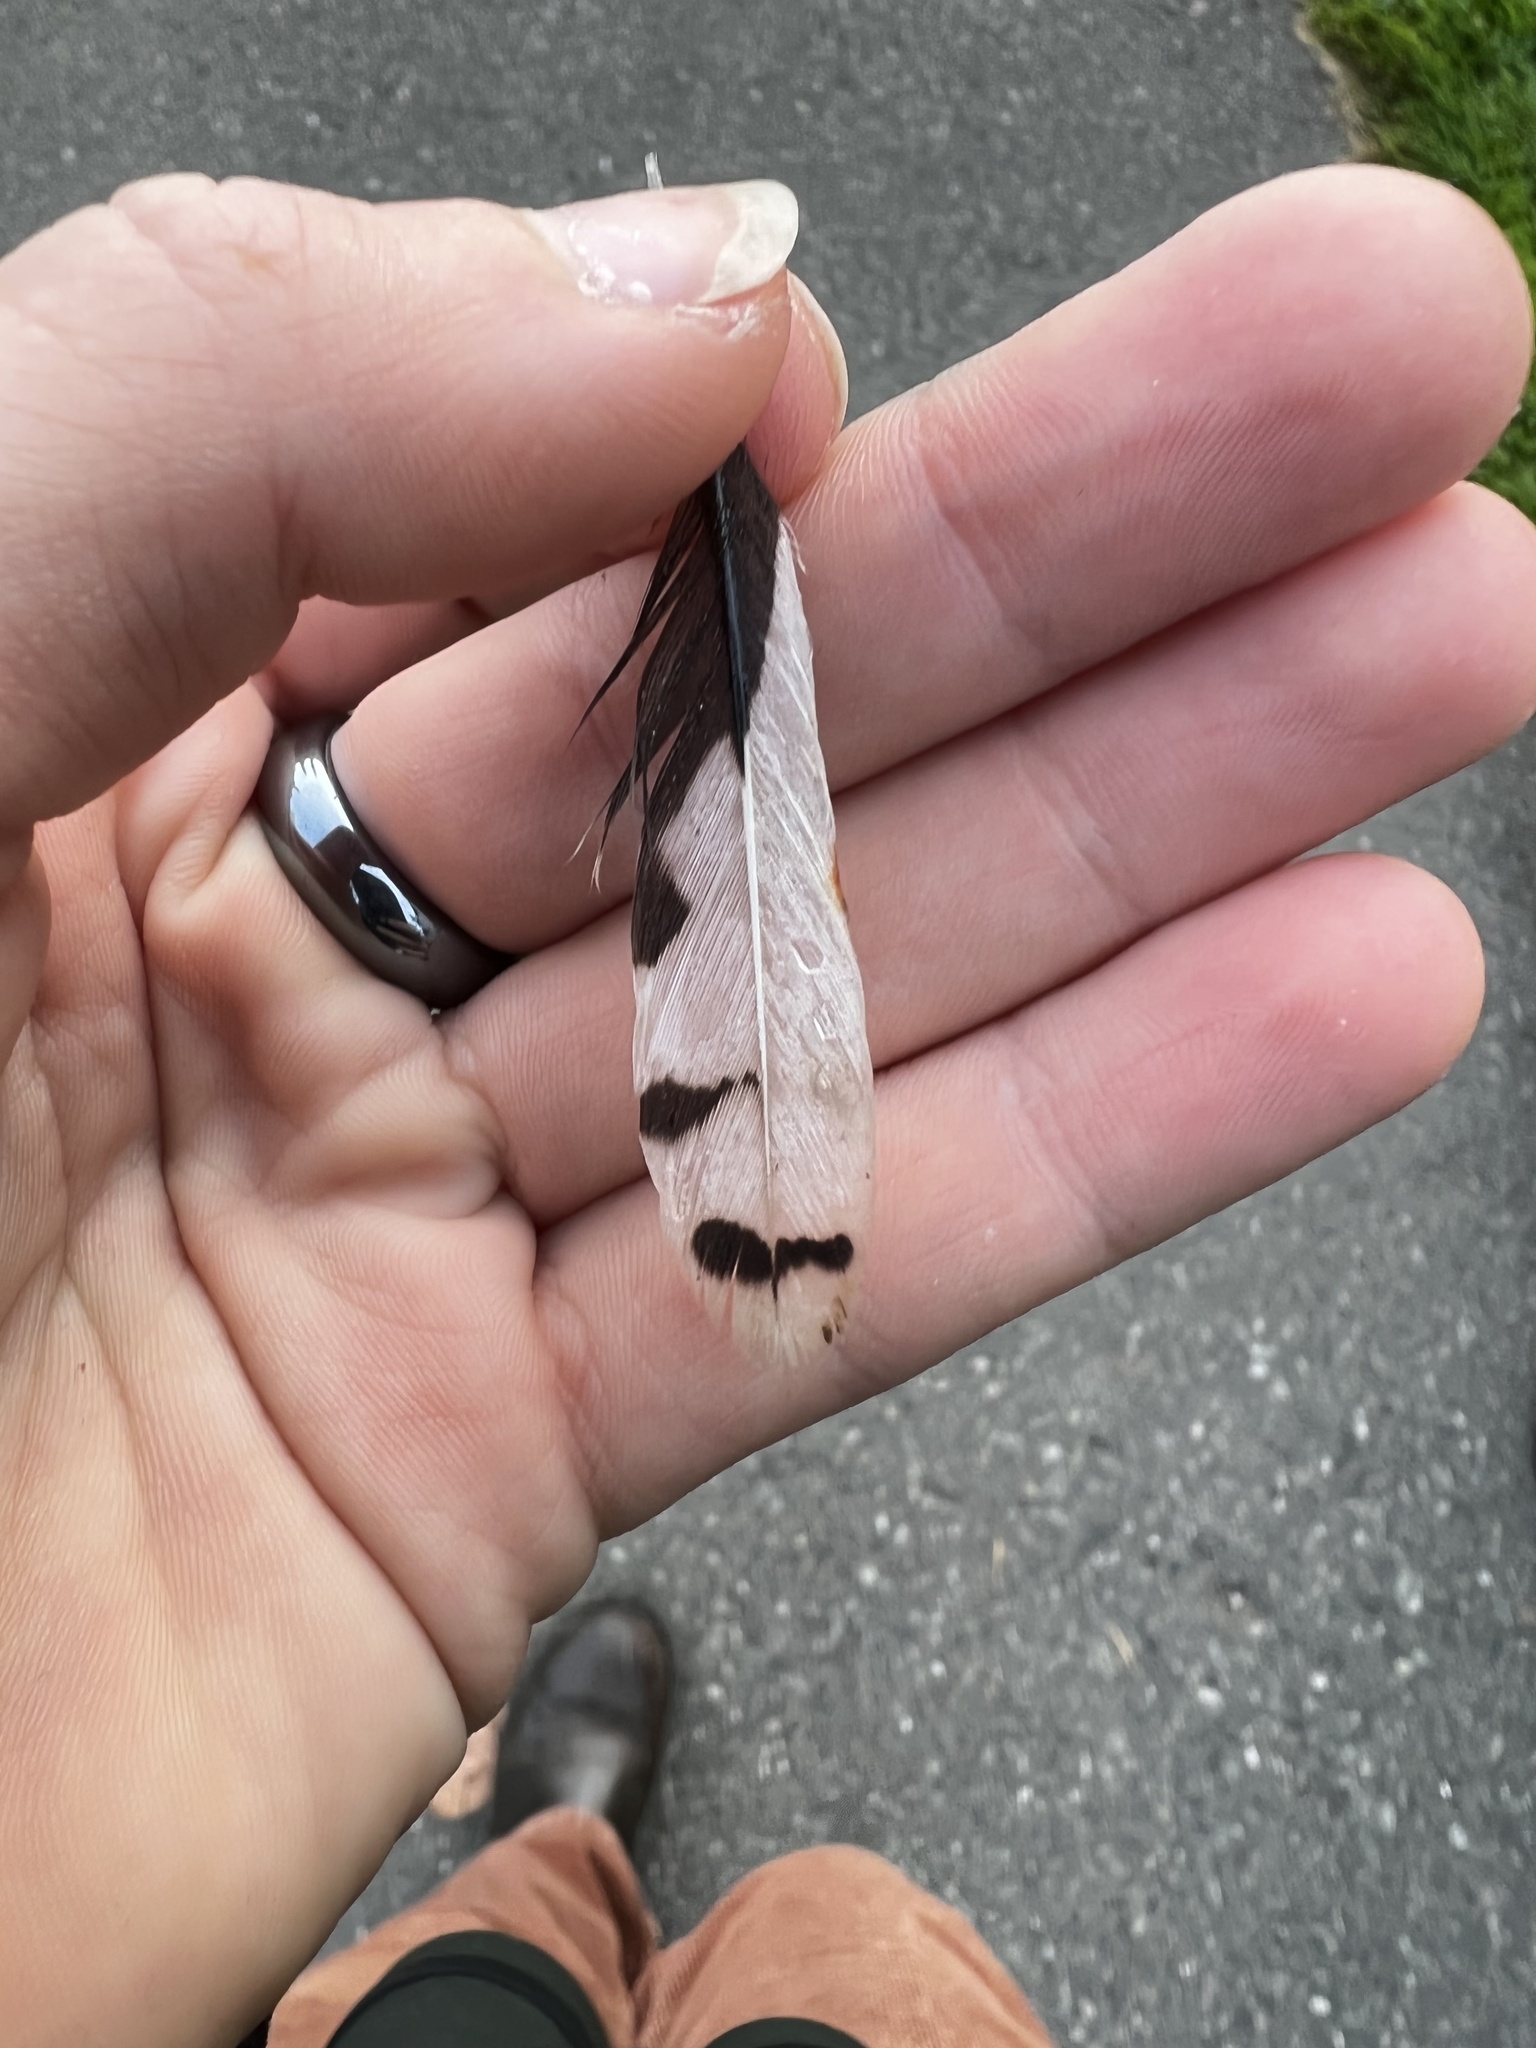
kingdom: Animalia
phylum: Chordata
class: Aves
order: Piciformes
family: Picidae
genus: Dryobates
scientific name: Dryobates pubescens
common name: Downy woodpecker
